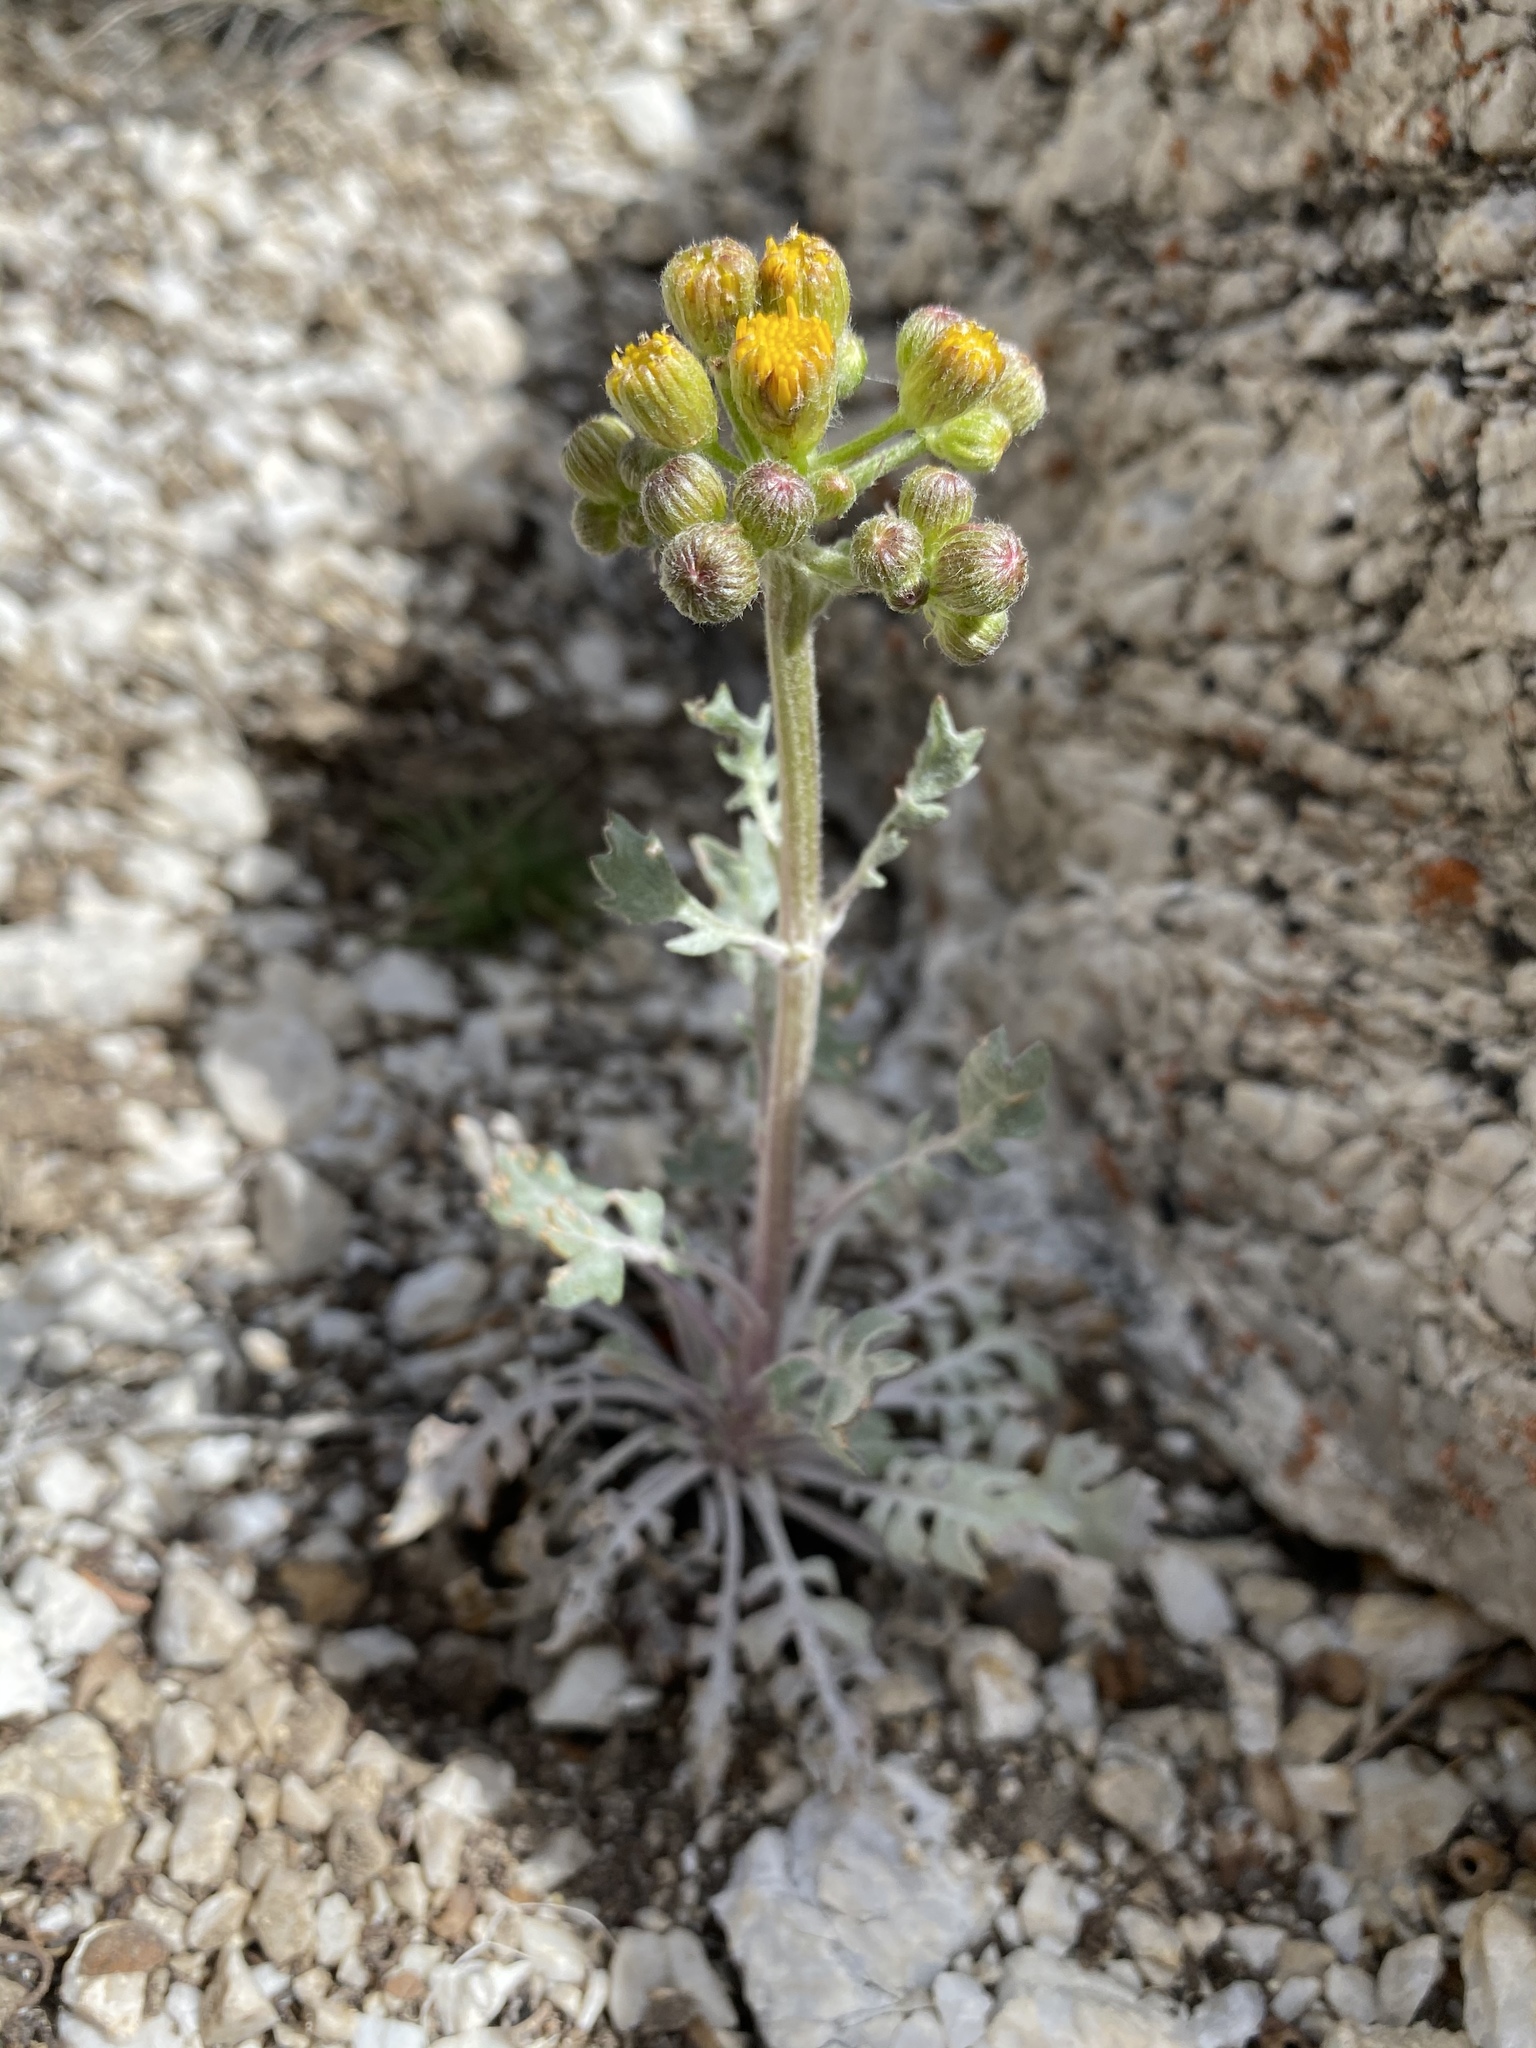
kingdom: Plantae
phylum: Tracheophyta
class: Magnoliopsida
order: Asterales
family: Asteraceae
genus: Packera
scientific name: Packera multilobata
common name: Lobe-leaf groundsel
